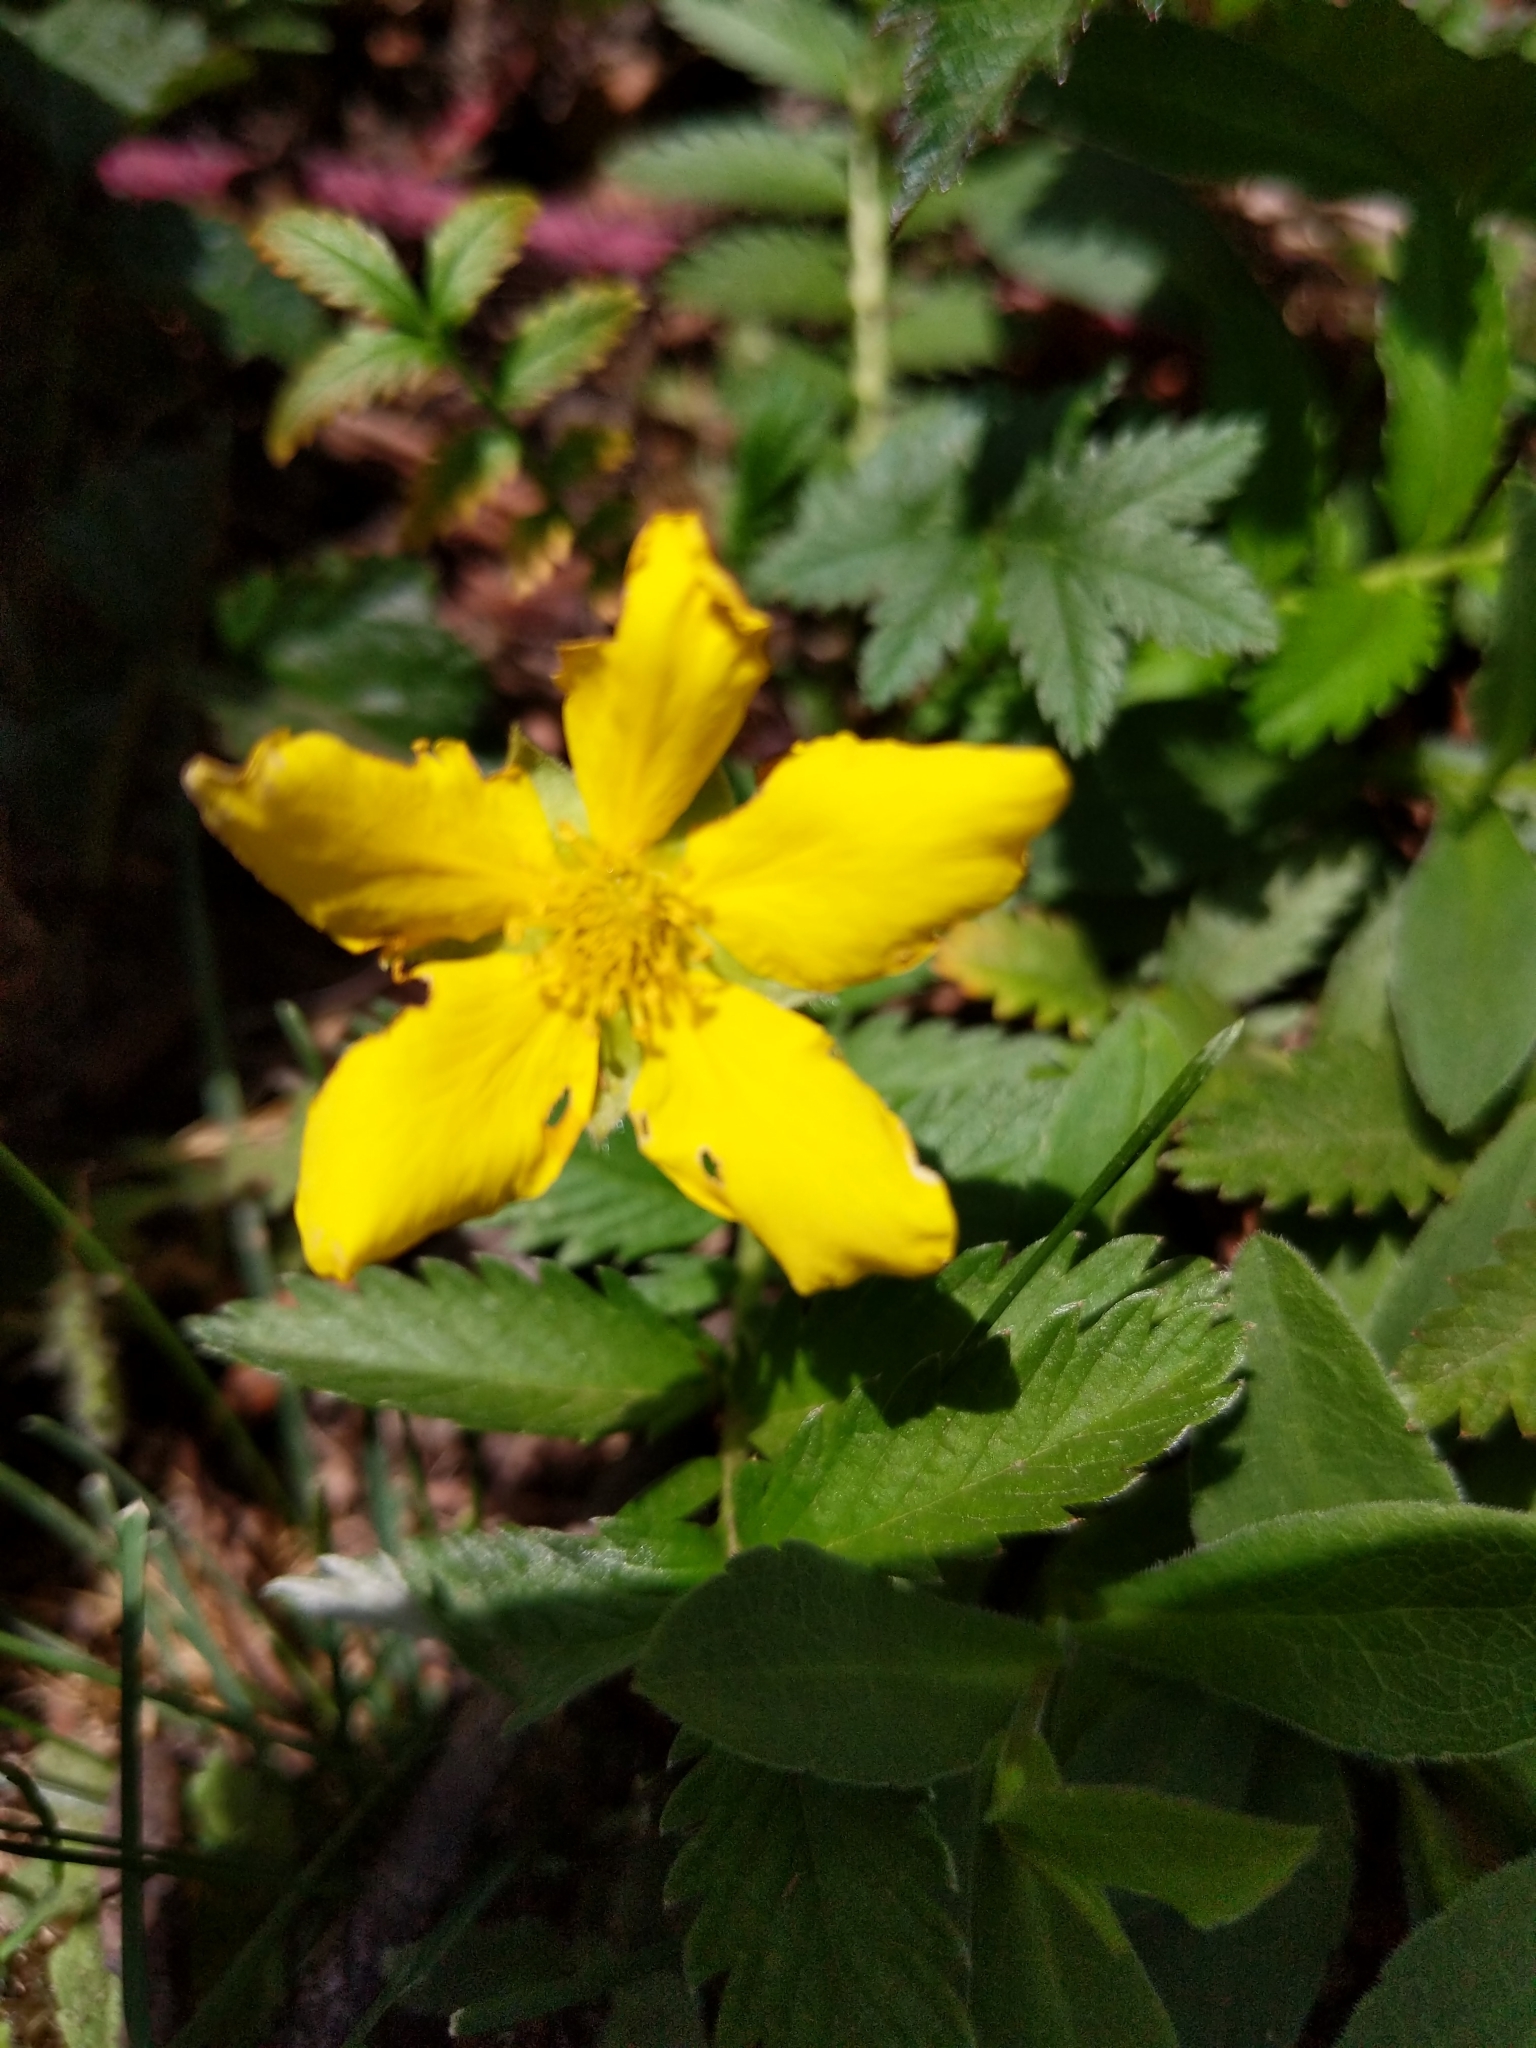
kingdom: Plantae
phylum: Tracheophyta
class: Magnoliopsida
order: Rosales
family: Rosaceae
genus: Argentina
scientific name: Argentina anserina
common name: Common silverweed
